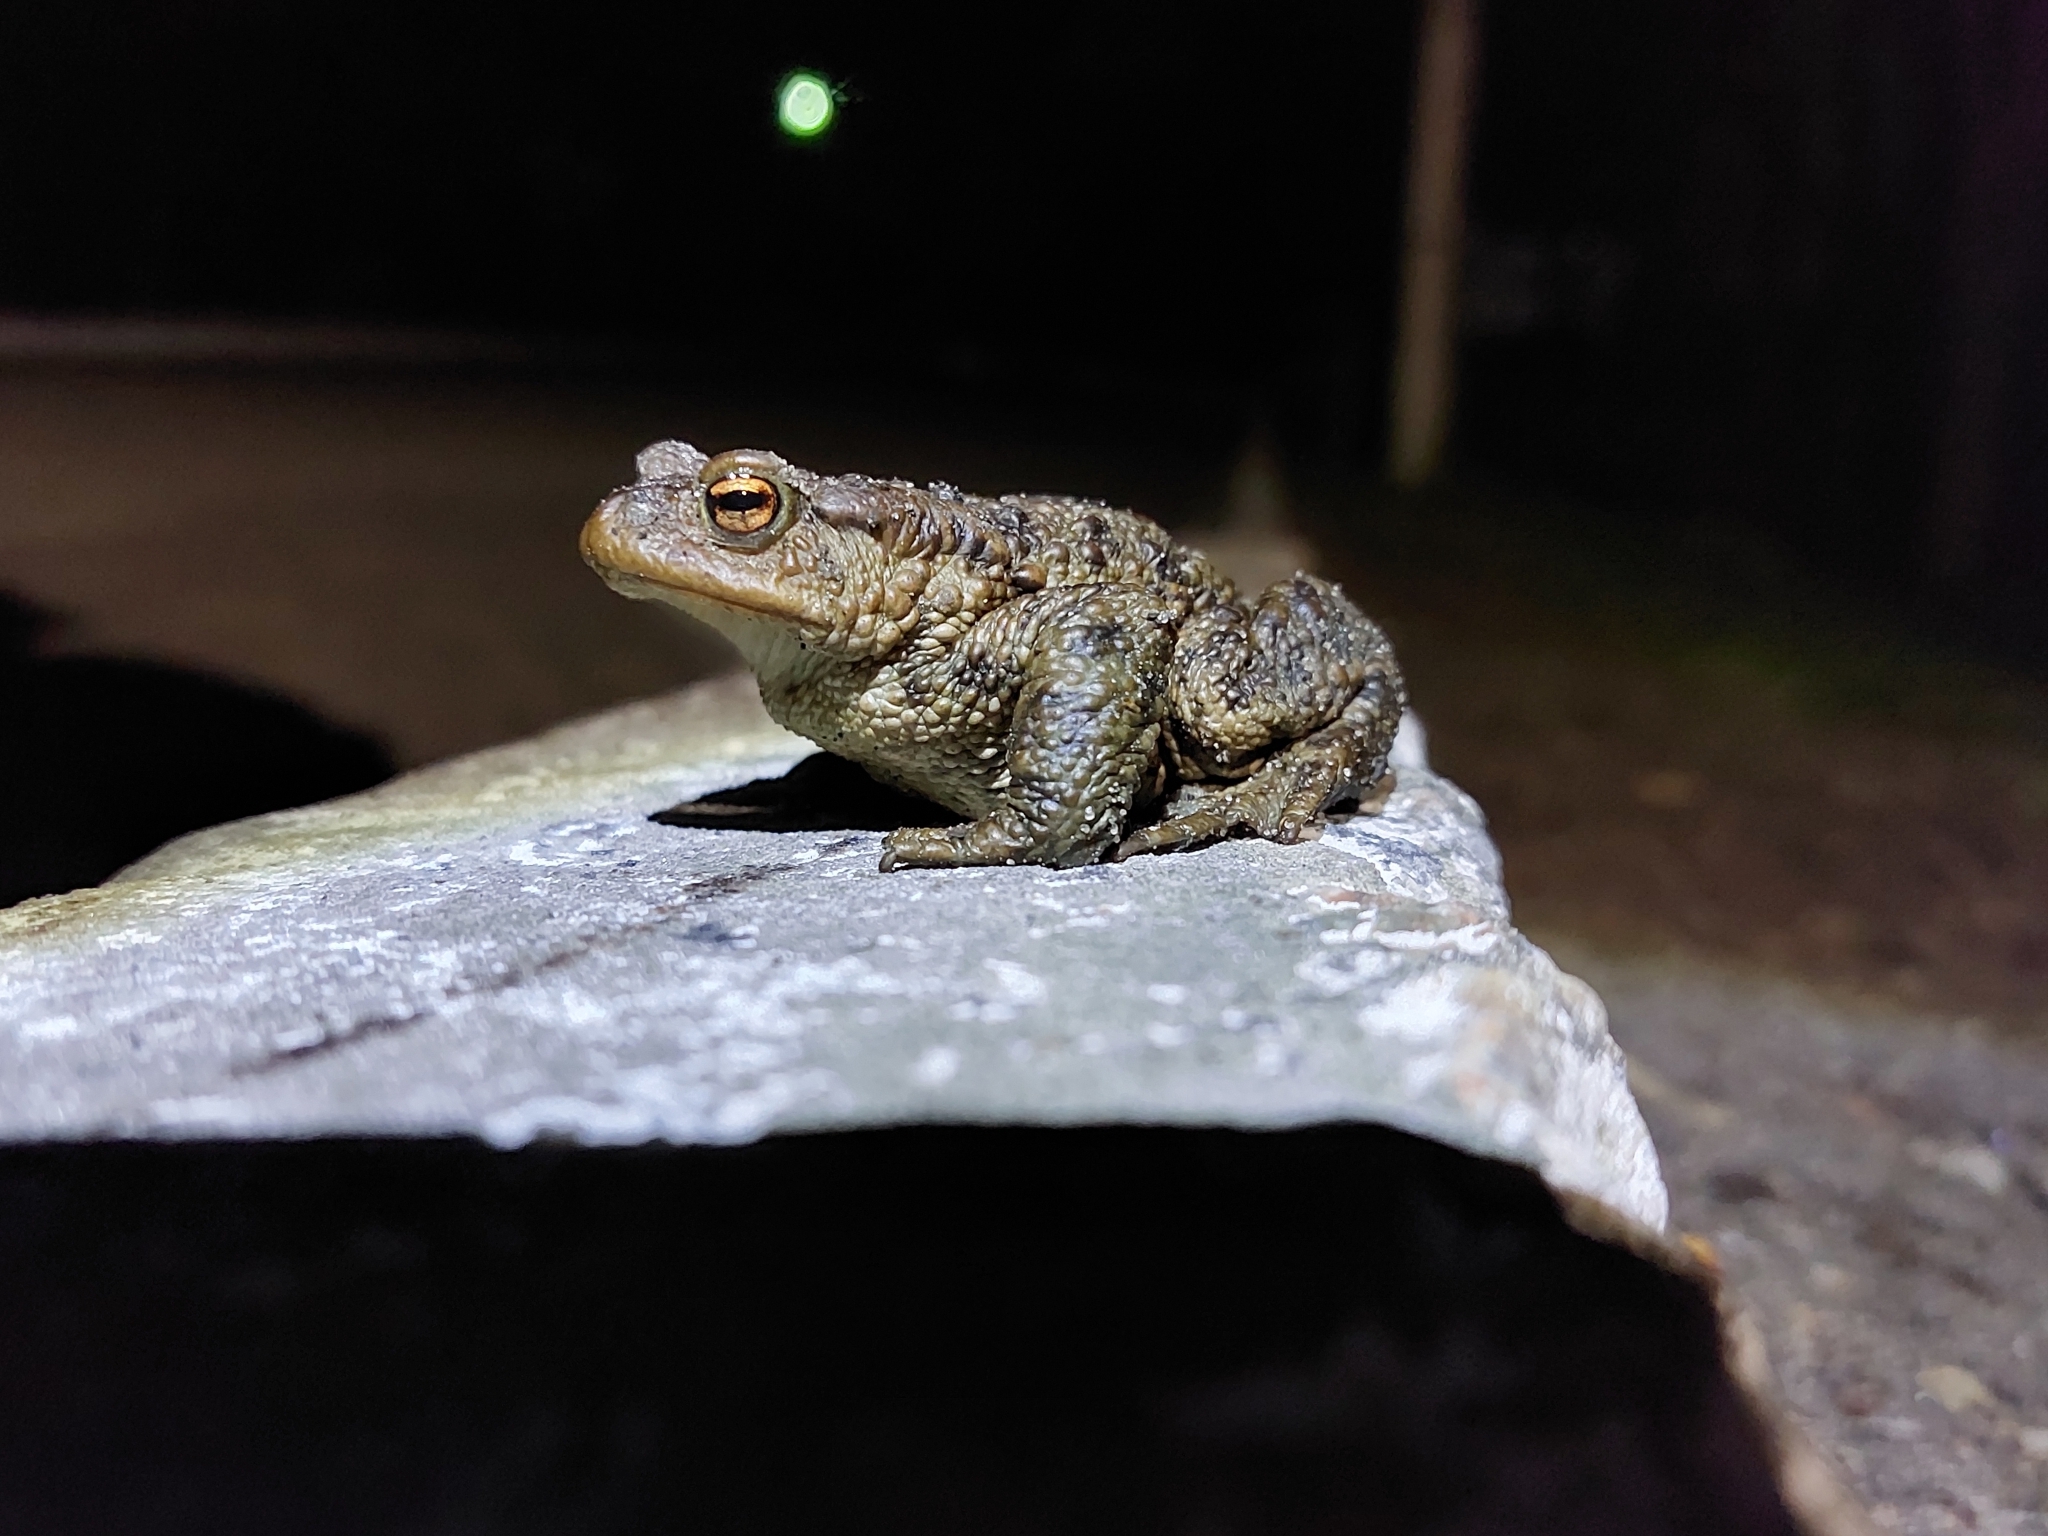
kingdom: Animalia
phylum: Chordata
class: Amphibia
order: Anura
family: Bufonidae
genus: Bufo
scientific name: Bufo bufo
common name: Common toad
